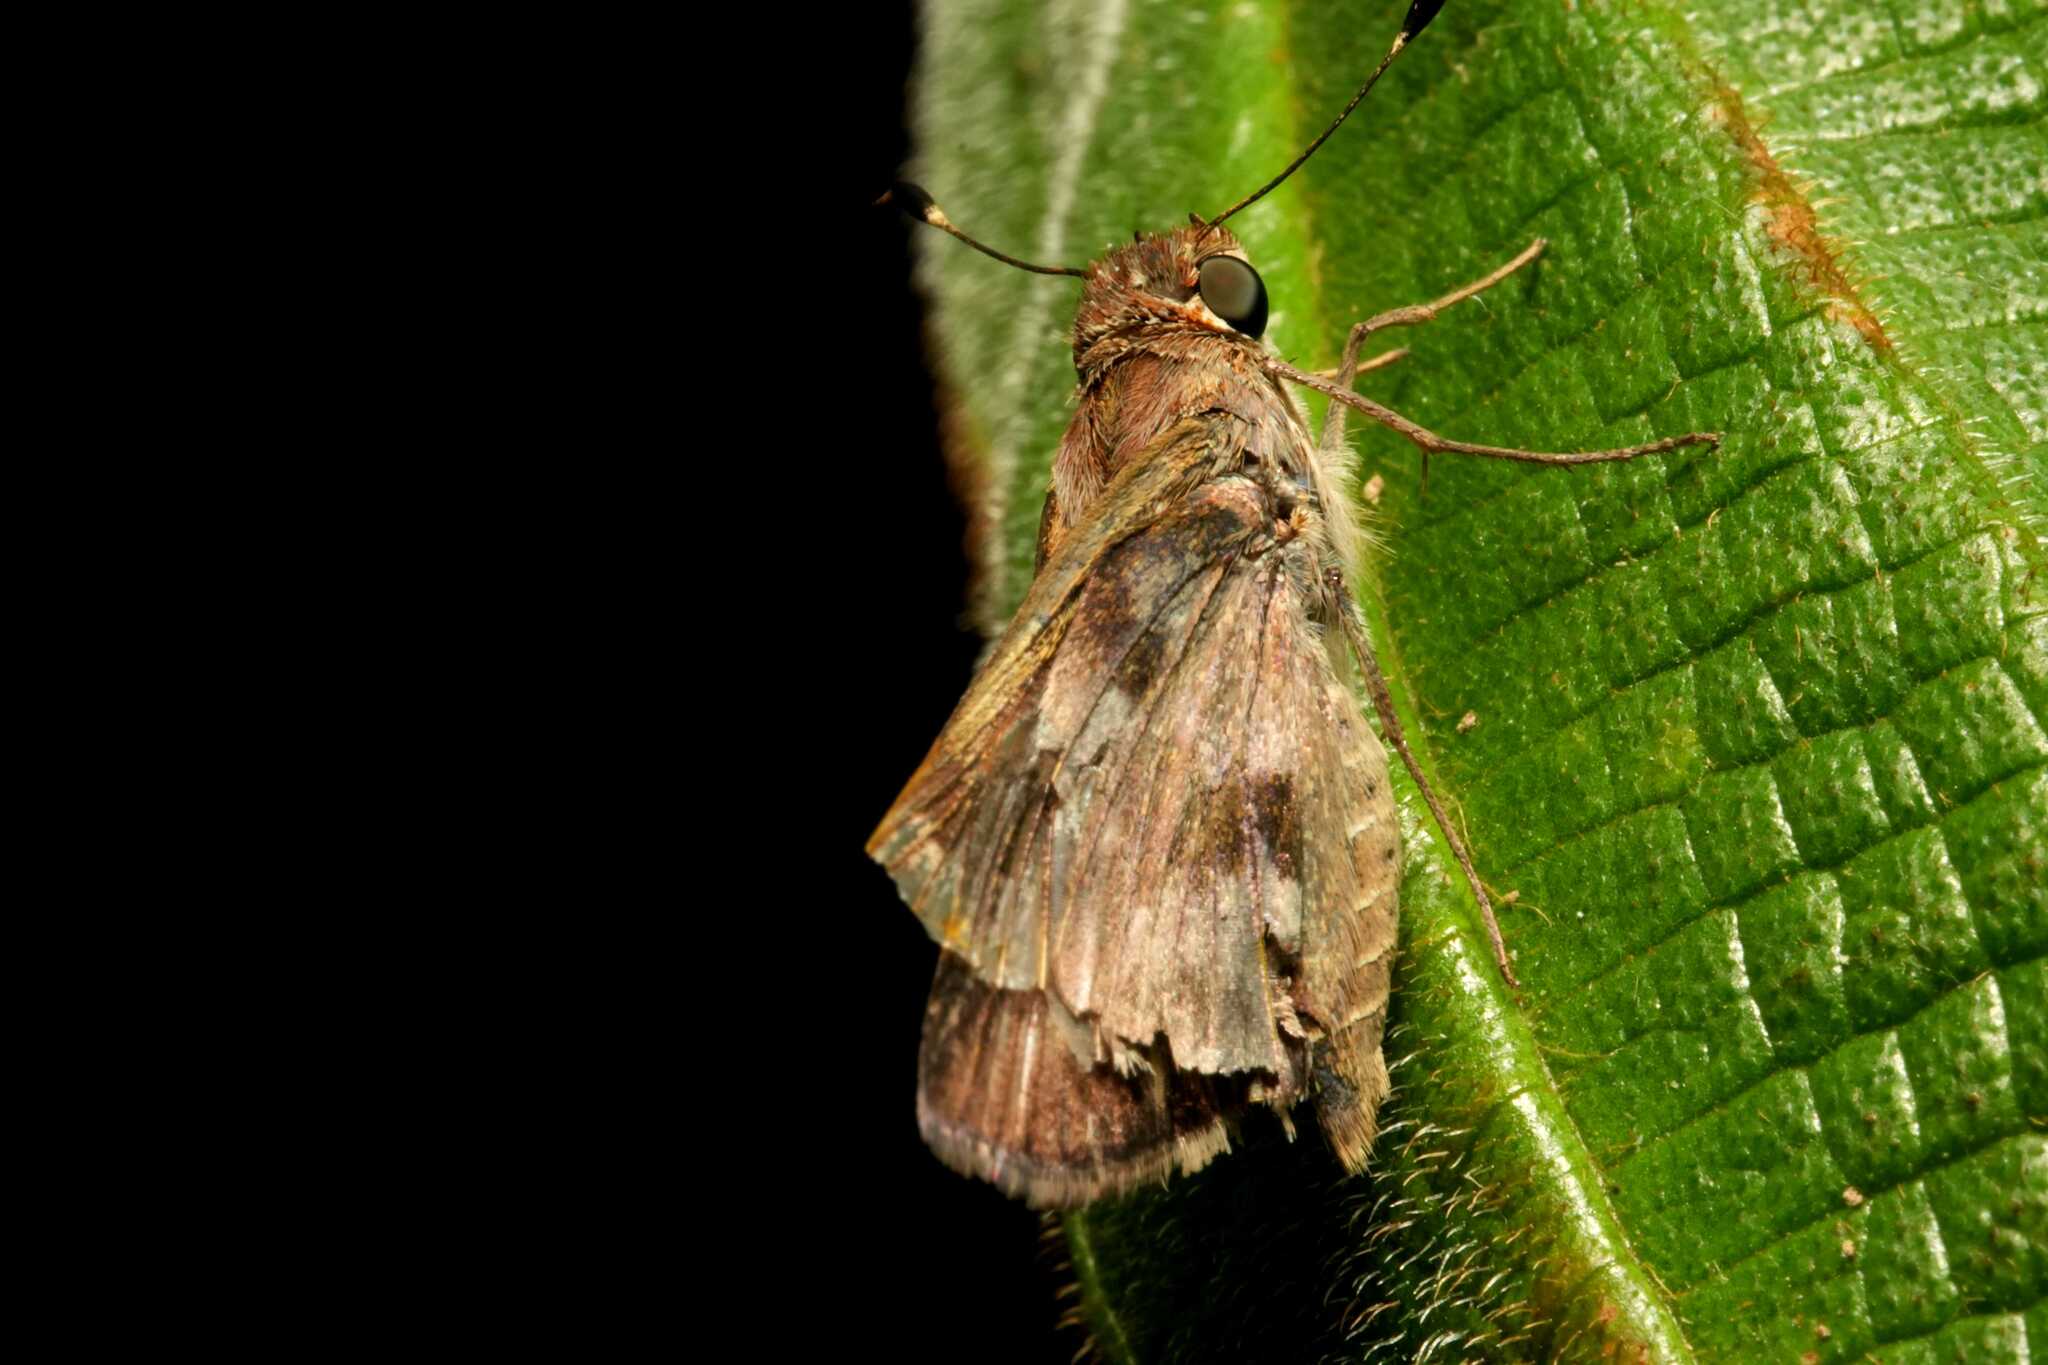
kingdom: Animalia
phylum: Arthropoda
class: Insecta
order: Lepidoptera
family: Hesperiidae
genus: Pompeius
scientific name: Pompeius pompeius
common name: Pompeius skipper
